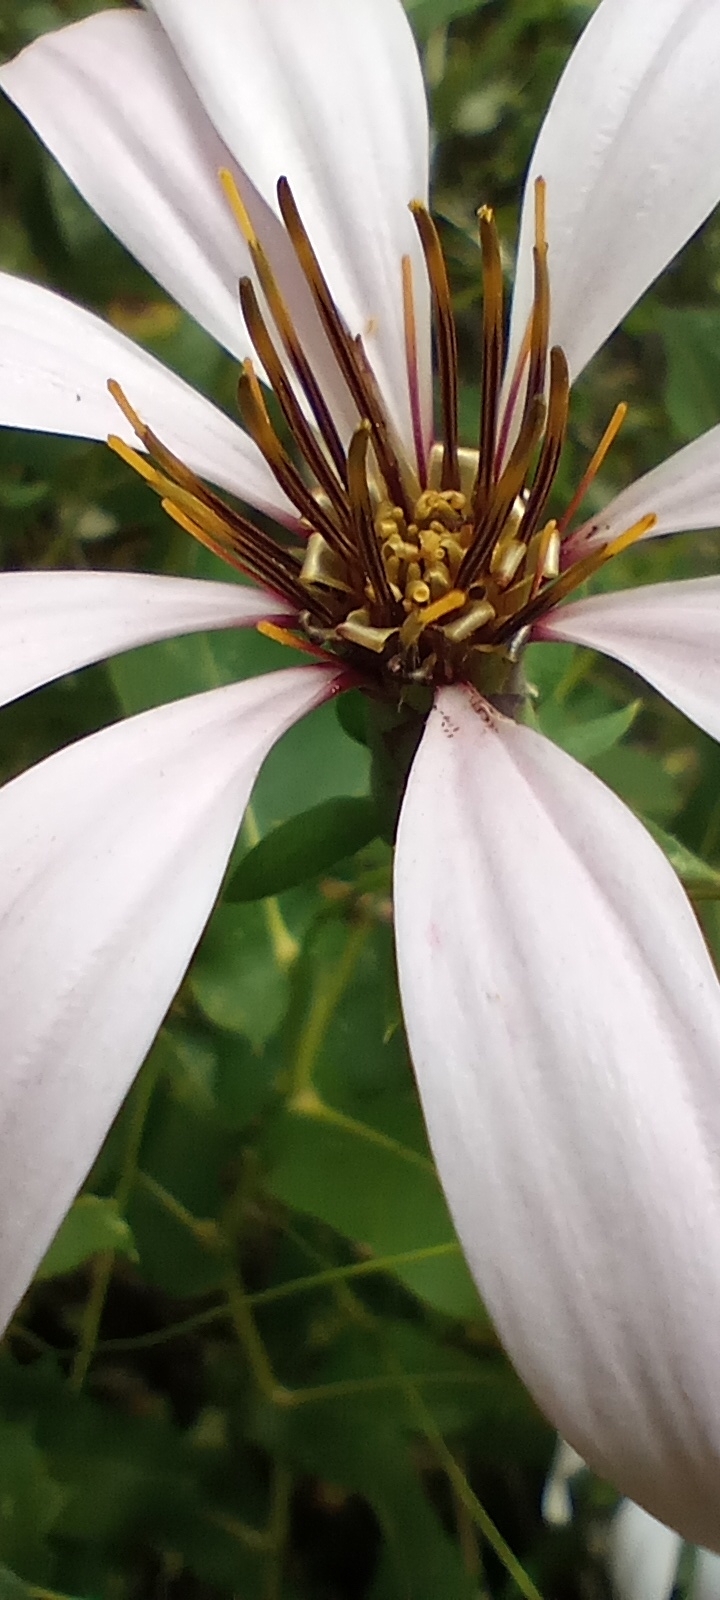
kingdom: Plantae
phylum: Tracheophyta
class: Magnoliopsida
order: Asterales
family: Asteraceae
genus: Mutisia
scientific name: Mutisia spinosa
